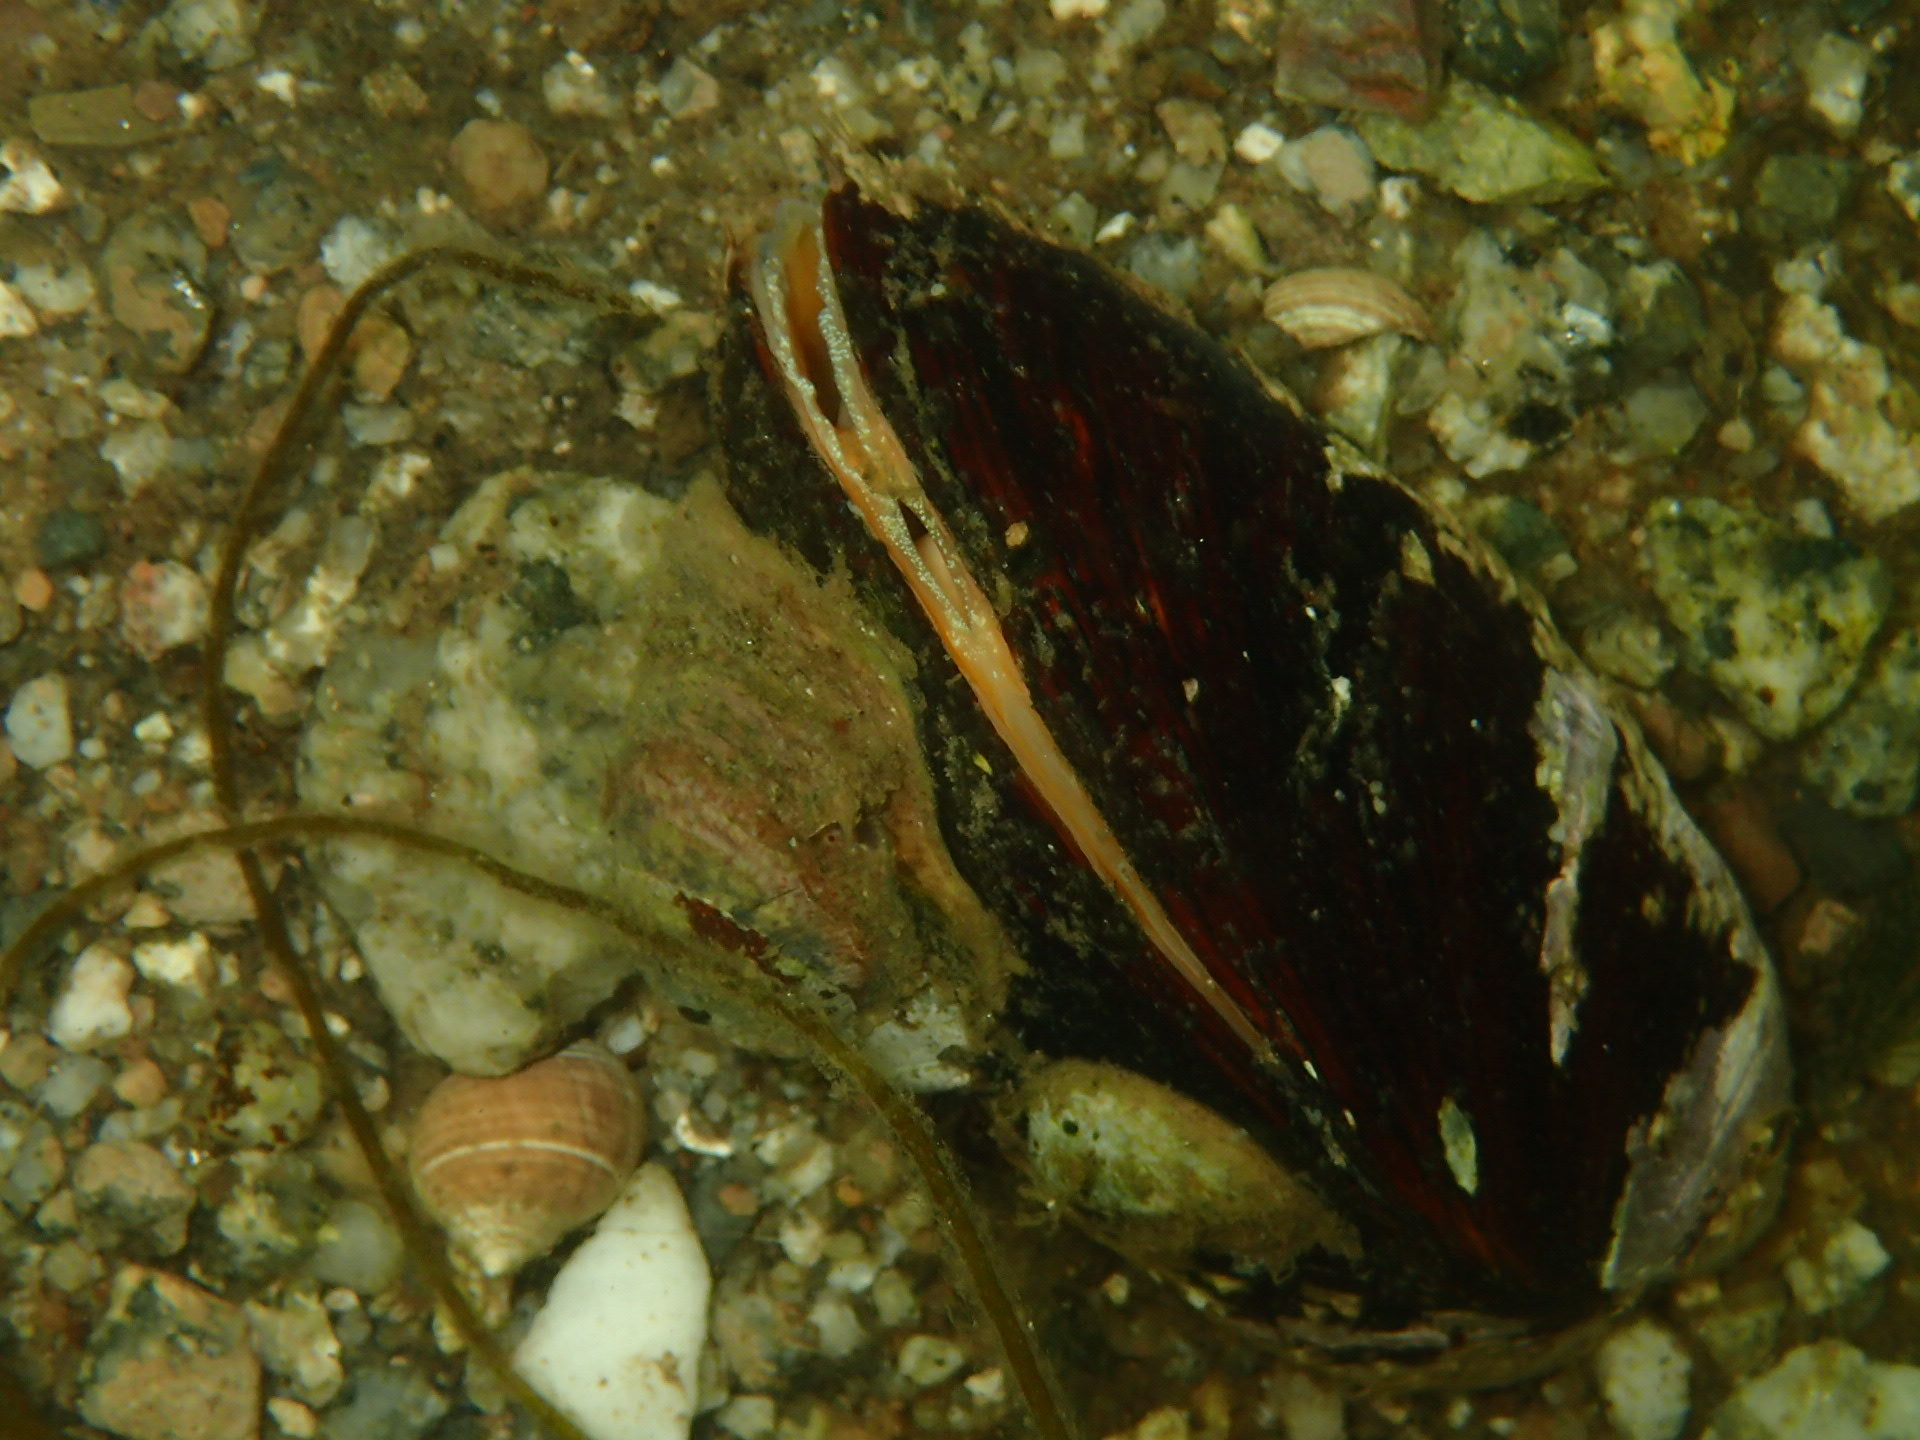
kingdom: Animalia
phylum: Mollusca
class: Bivalvia
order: Mytilida
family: Mytilidae
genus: Modiolus
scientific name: Modiolus modiolus
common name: Horse-mussel
